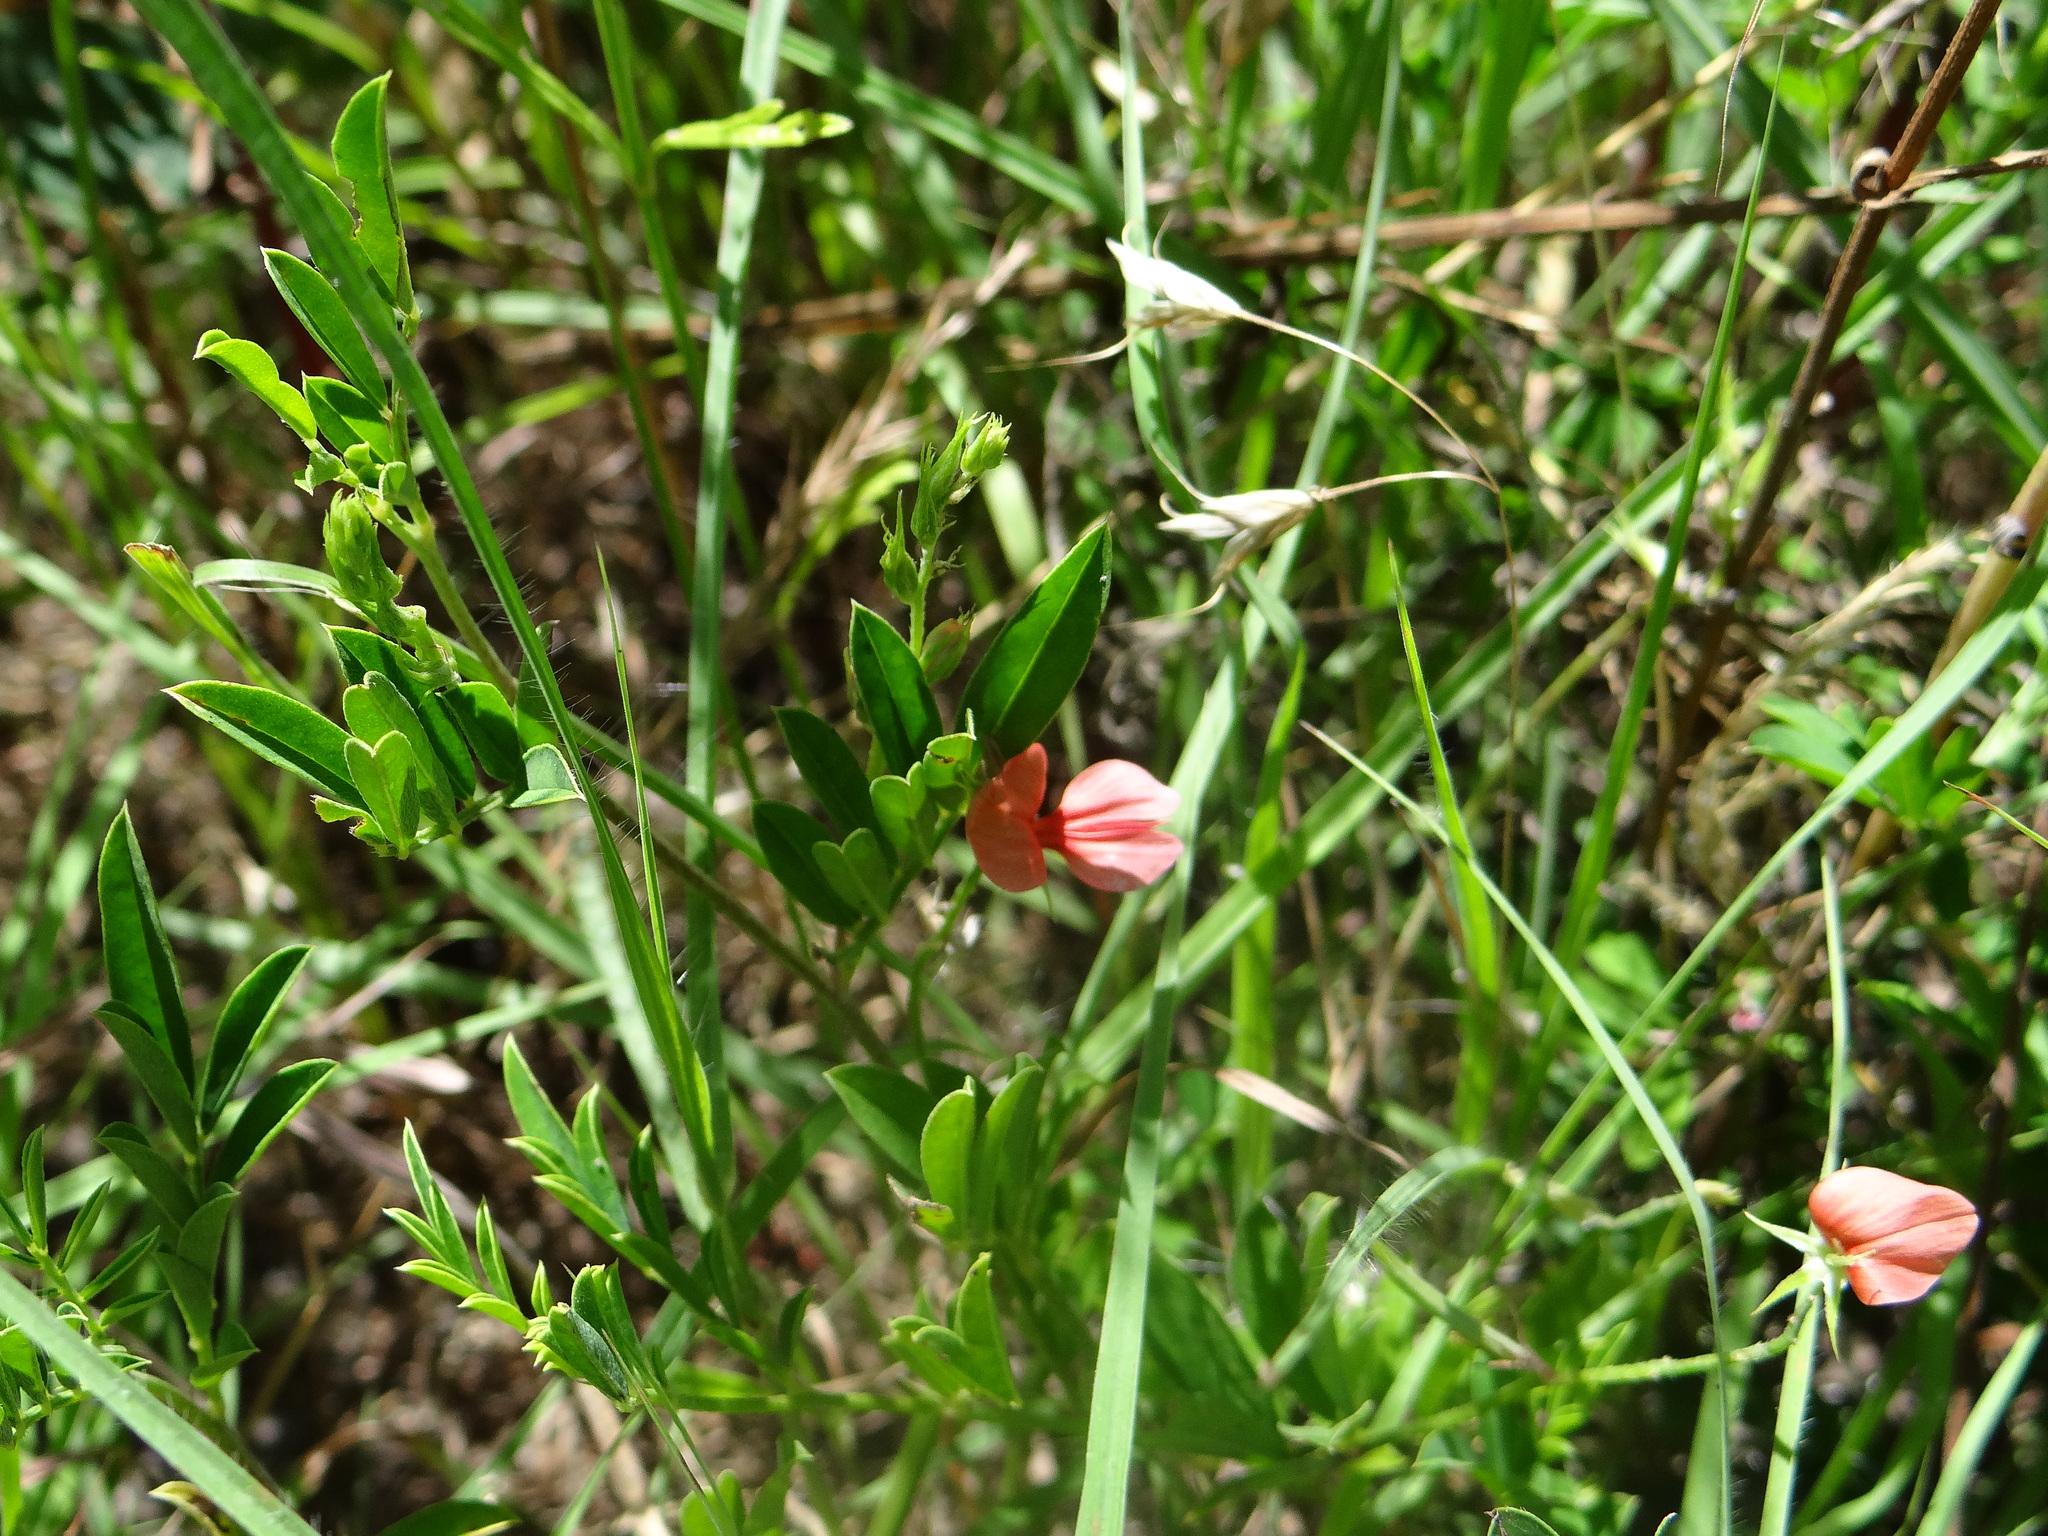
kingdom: Plantae
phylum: Tracheophyta
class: Magnoliopsida
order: Fabales
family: Fabaceae
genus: Indigofera
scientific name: Indigofera miniata
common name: Coast indigo
